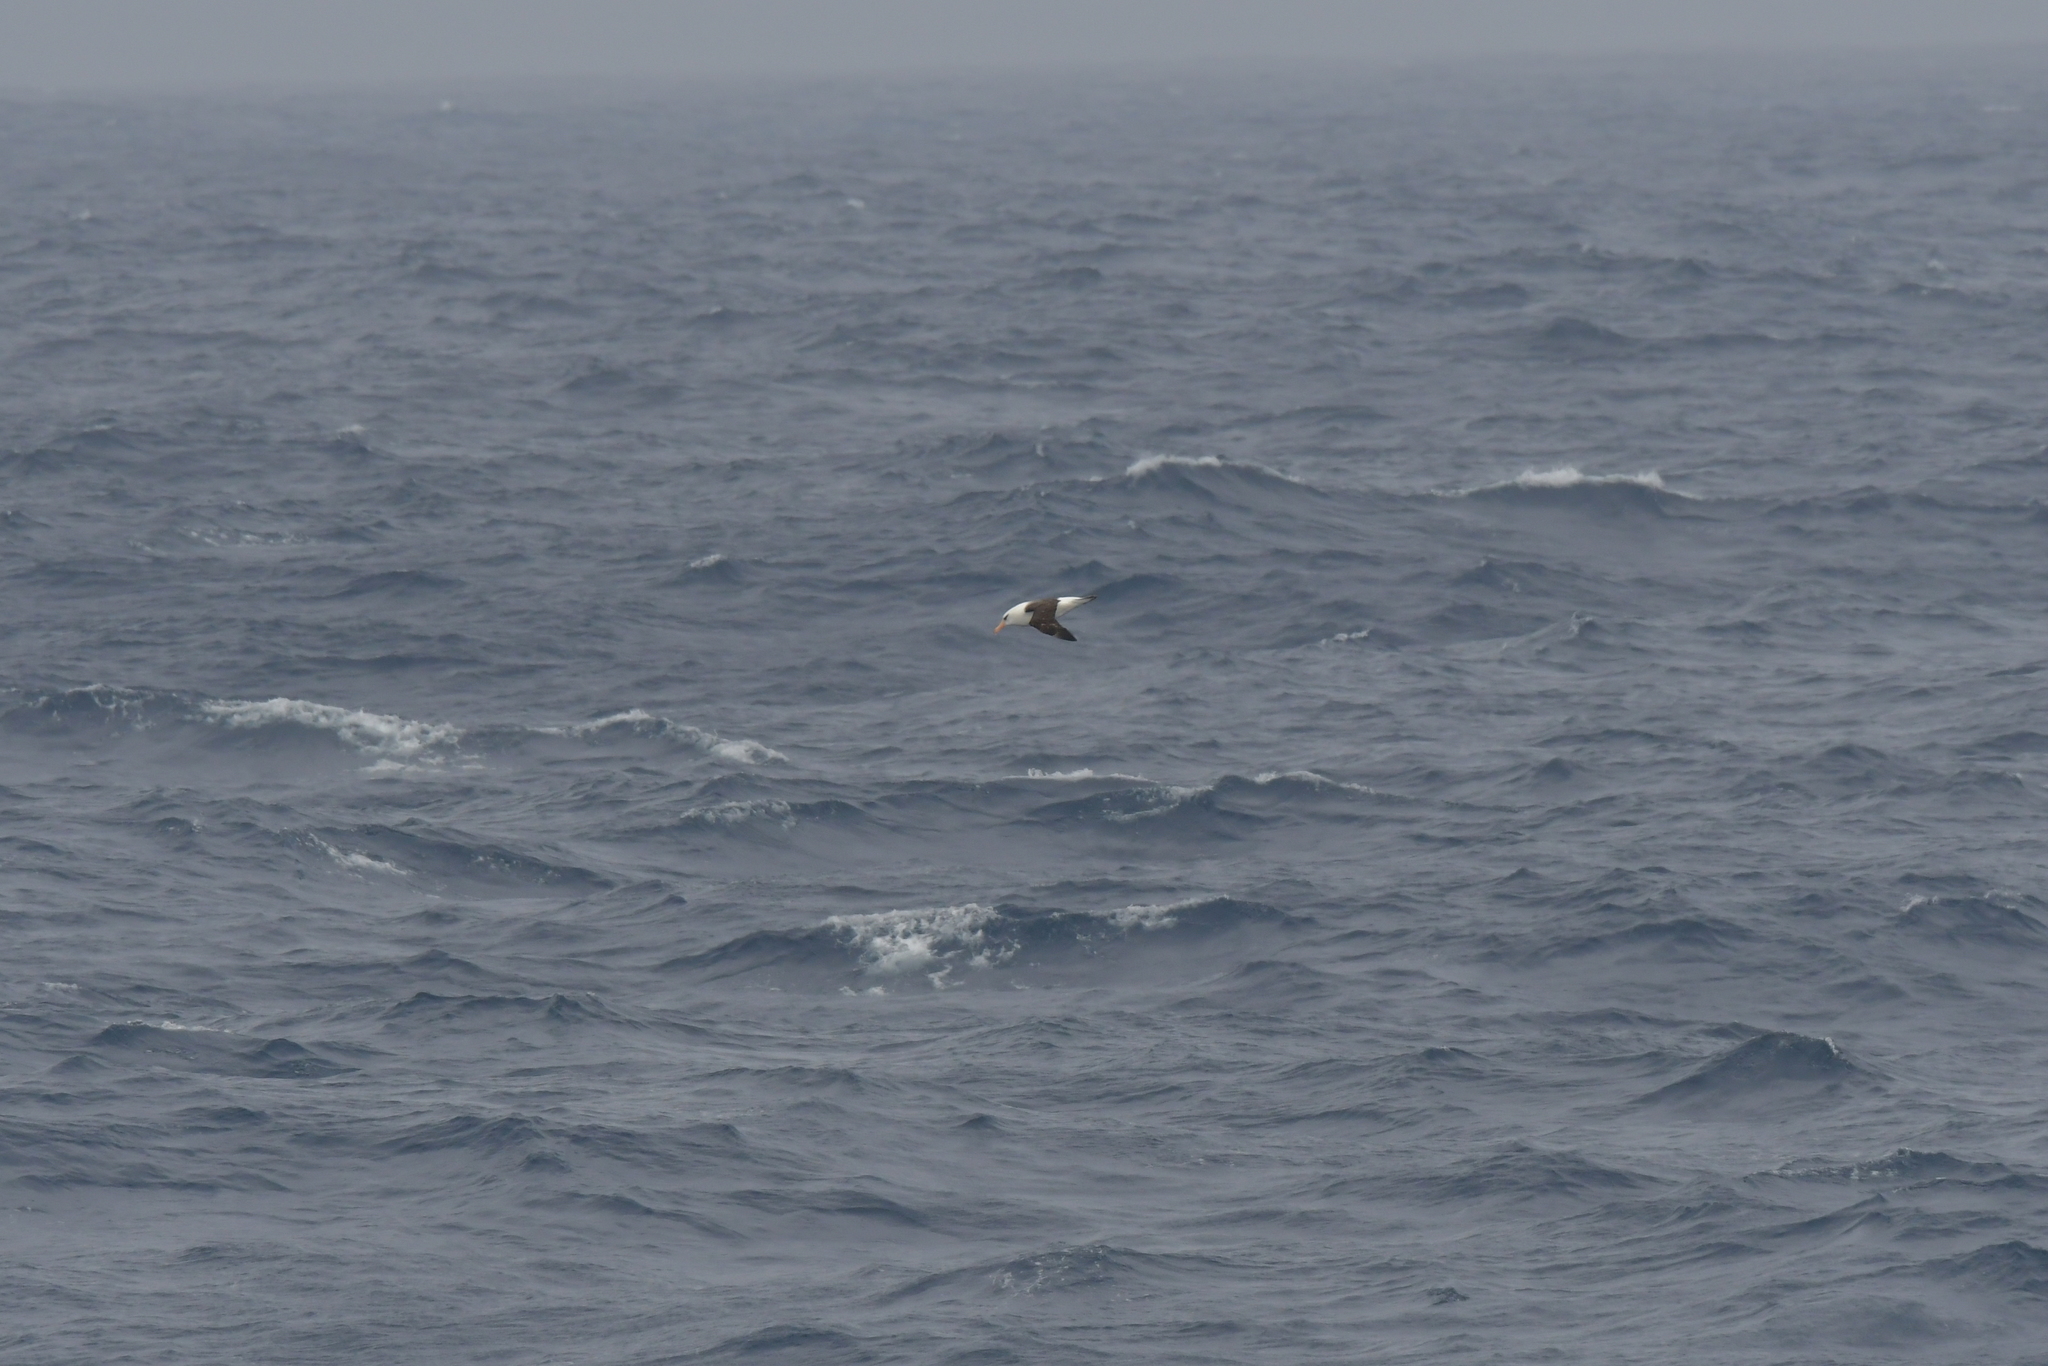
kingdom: Animalia
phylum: Chordata
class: Aves
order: Procellariiformes
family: Diomedeidae
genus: Thalassarche
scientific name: Thalassarche impavida
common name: Campbell albatross
